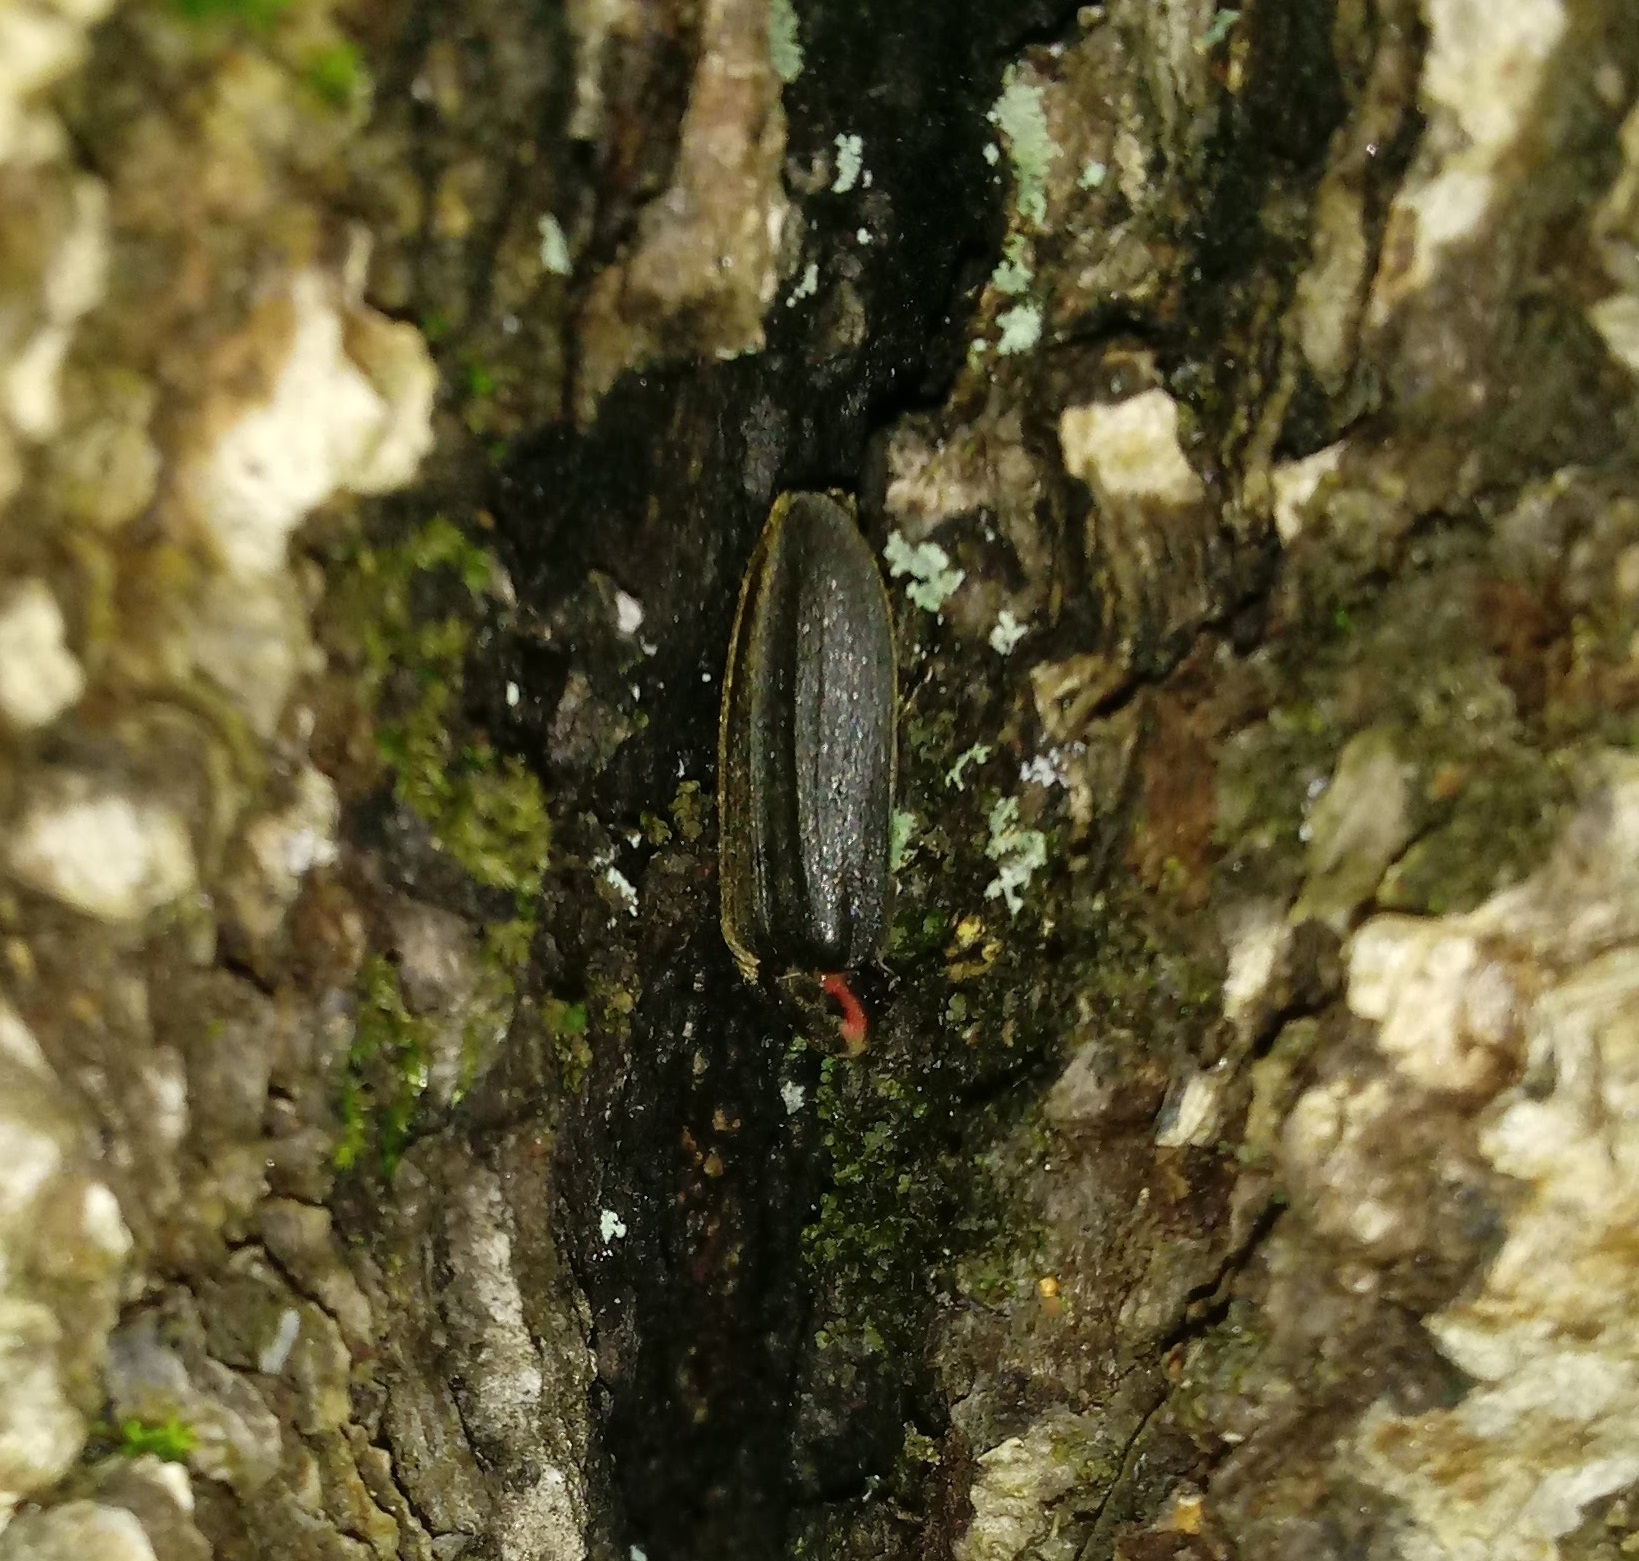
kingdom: Animalia
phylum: Arthropoda
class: Insecta
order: Coleoptera
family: Lampyridae
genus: Photinus
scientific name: Photinus corrusca
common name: Winter firefly
